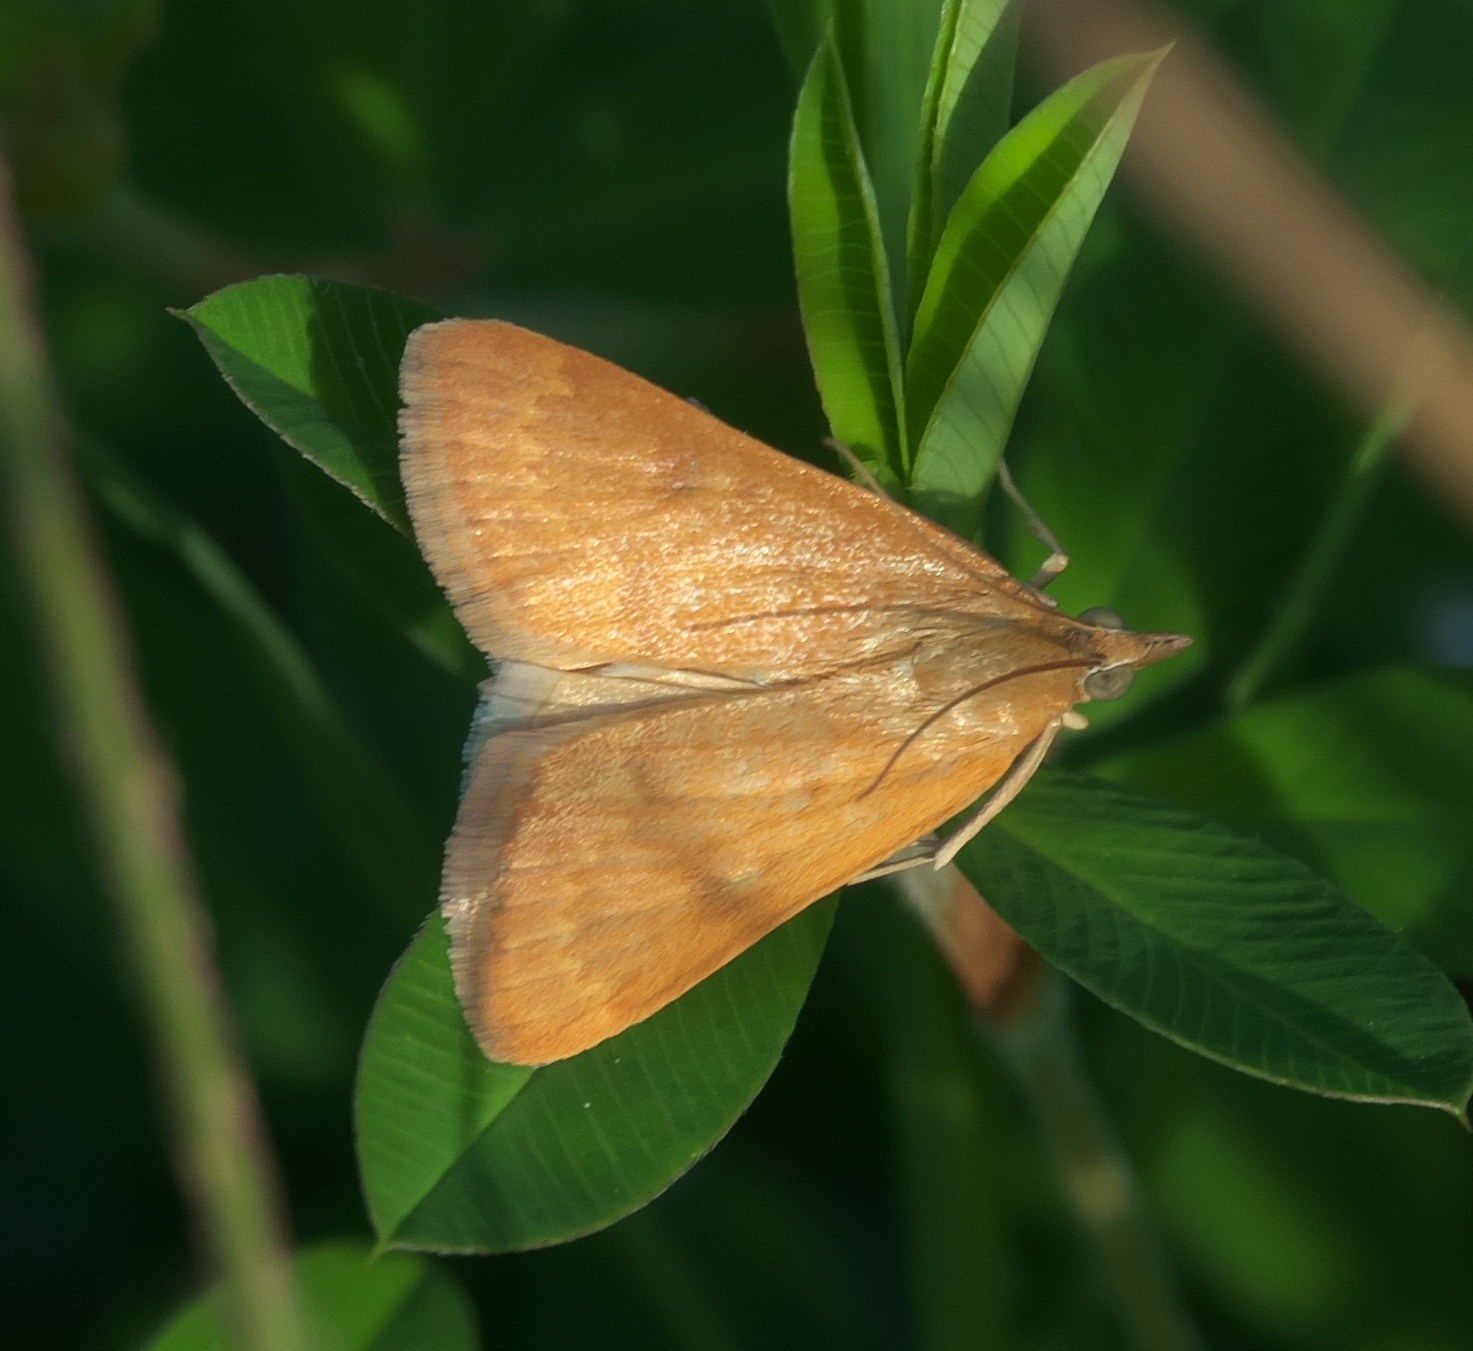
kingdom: Animalia
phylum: Arthropoda
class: Insecta
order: Lepidoptera
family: Crambidae
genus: Achyra
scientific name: Achyra rantalis
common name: Garden webworm
